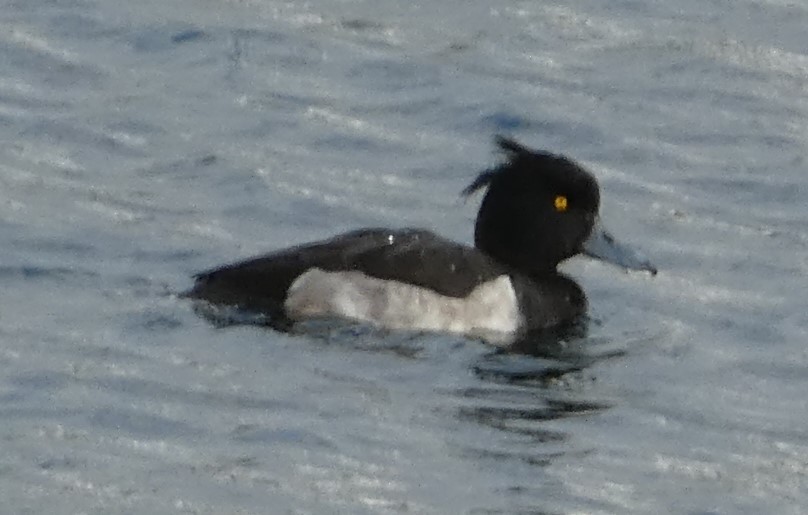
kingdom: Animalia
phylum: Chordata
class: Aves
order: Anseriformes
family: Anatidae
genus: Aythya
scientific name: Aythya fuligula
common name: Tufted duck
